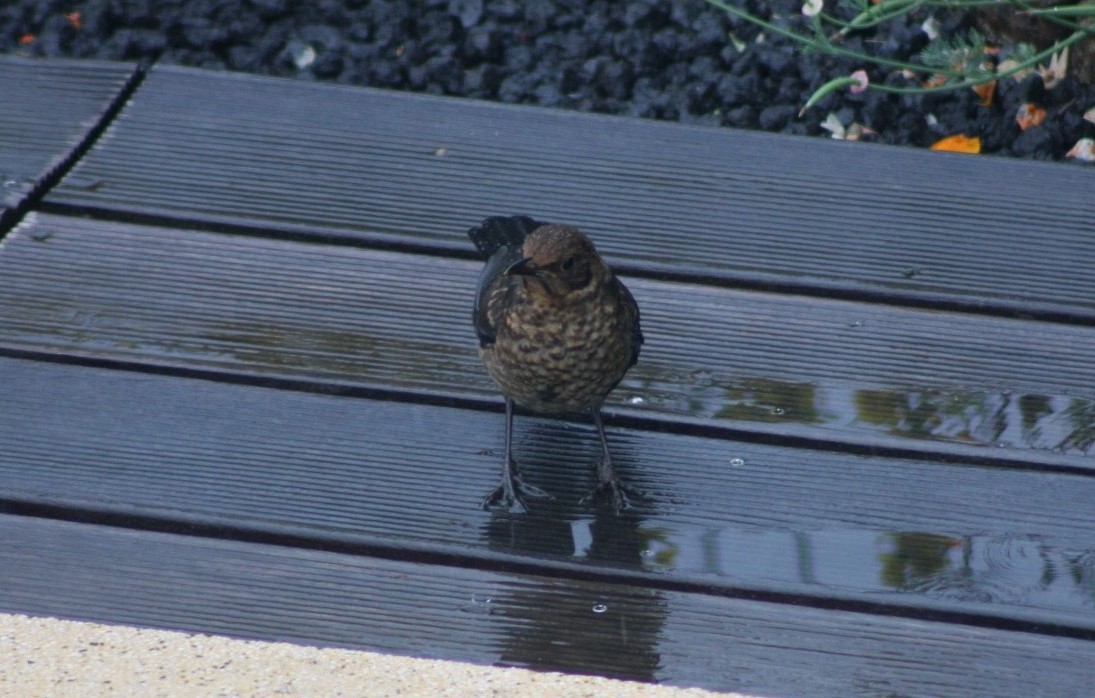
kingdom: Animalia
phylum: Chordata
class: Aves
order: Passeriformes
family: Turdidae
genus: Turdus
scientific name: Turdus merula
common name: Common blackbird
